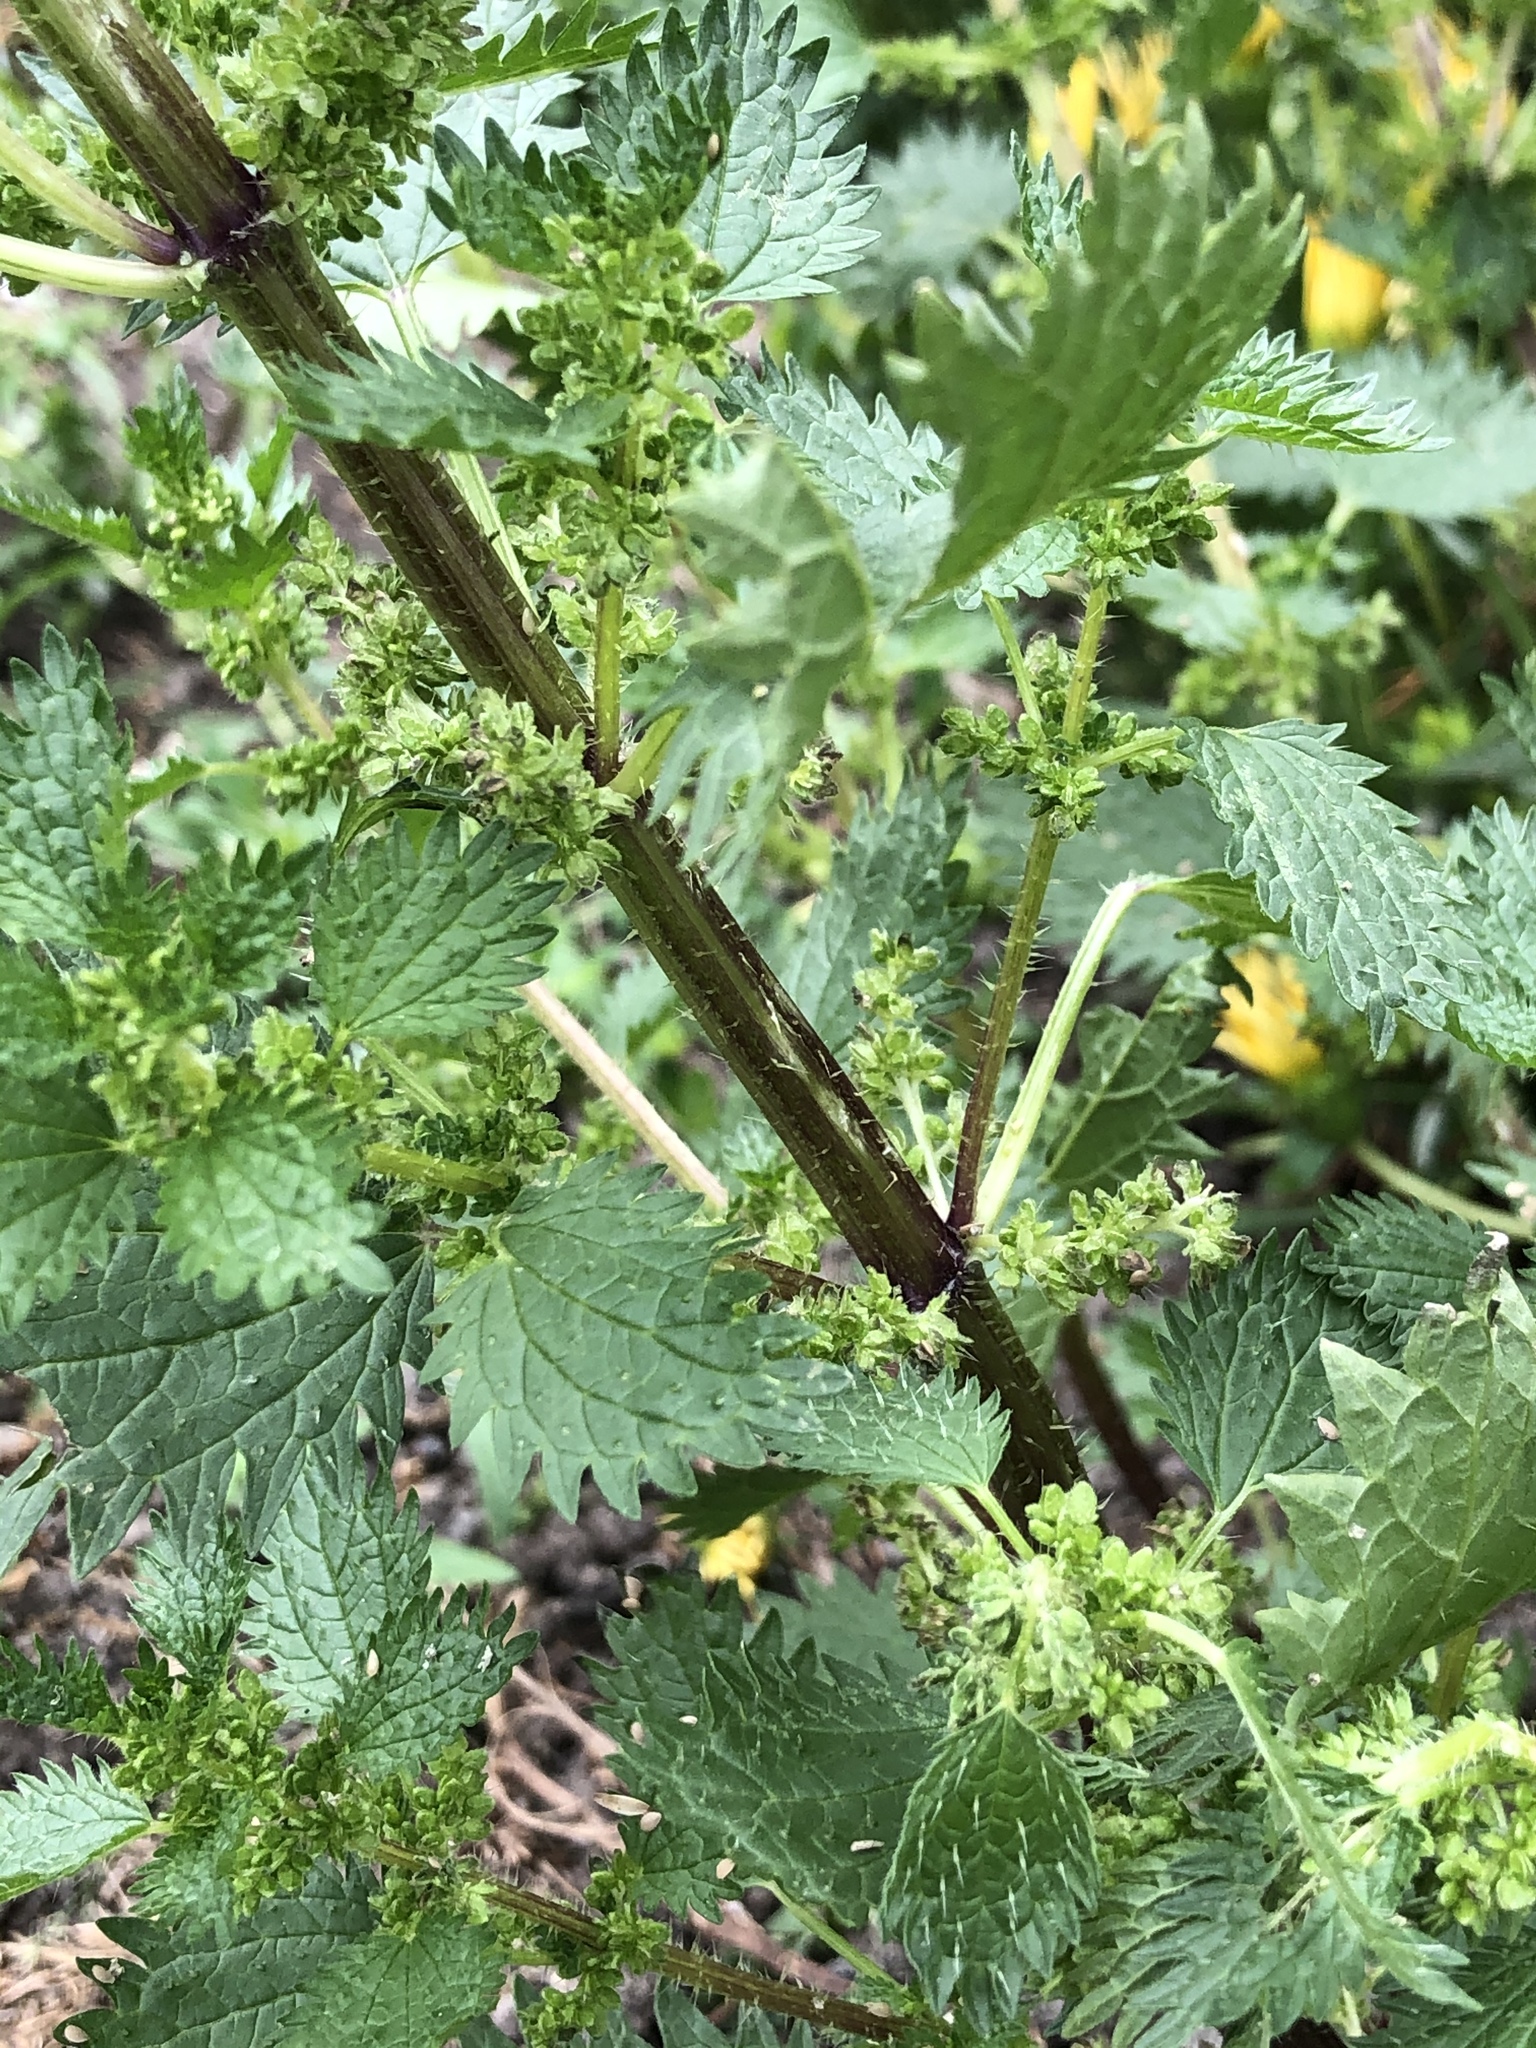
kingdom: Plantae
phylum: Tracheophyta
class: Magnoliopsida
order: Rosales
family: Urticaceae
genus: Urtica
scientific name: Urtica urens
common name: Dwarf nettle
